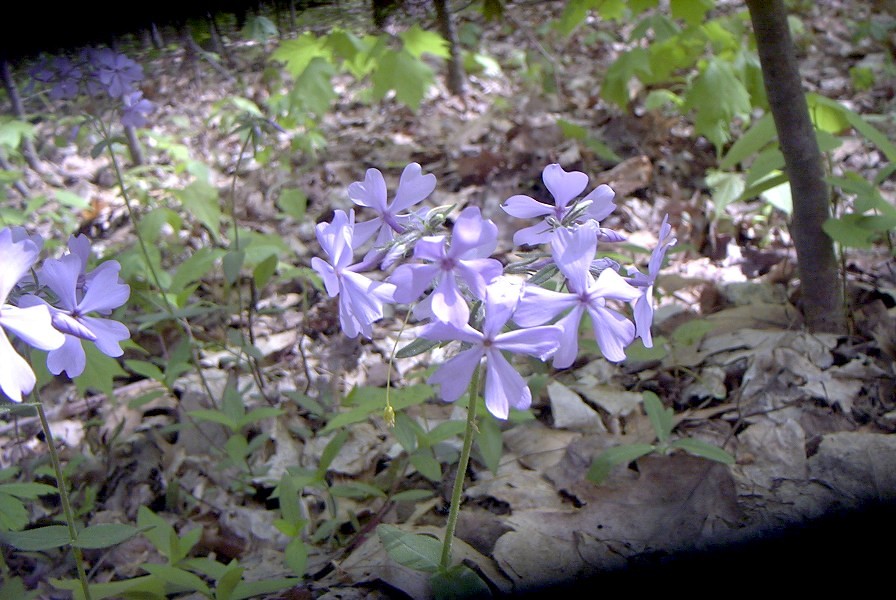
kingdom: Plantae
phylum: Tracheophyta
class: Magnoliopsida
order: Ericales
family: Polemoniaceae
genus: Phlox
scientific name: Phlox divaricata
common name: Blue phlox
